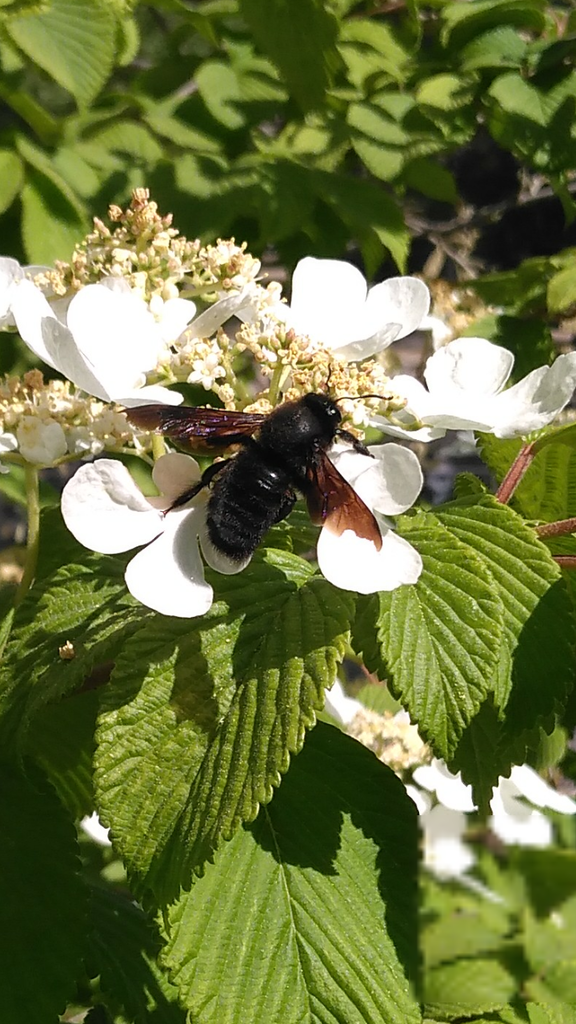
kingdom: Animalia
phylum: Arthropoda
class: Insecta
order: Hymenoptera
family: Apidae
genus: Xylocopa
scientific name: Xylocopa violacea
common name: Violet carpenter bee
